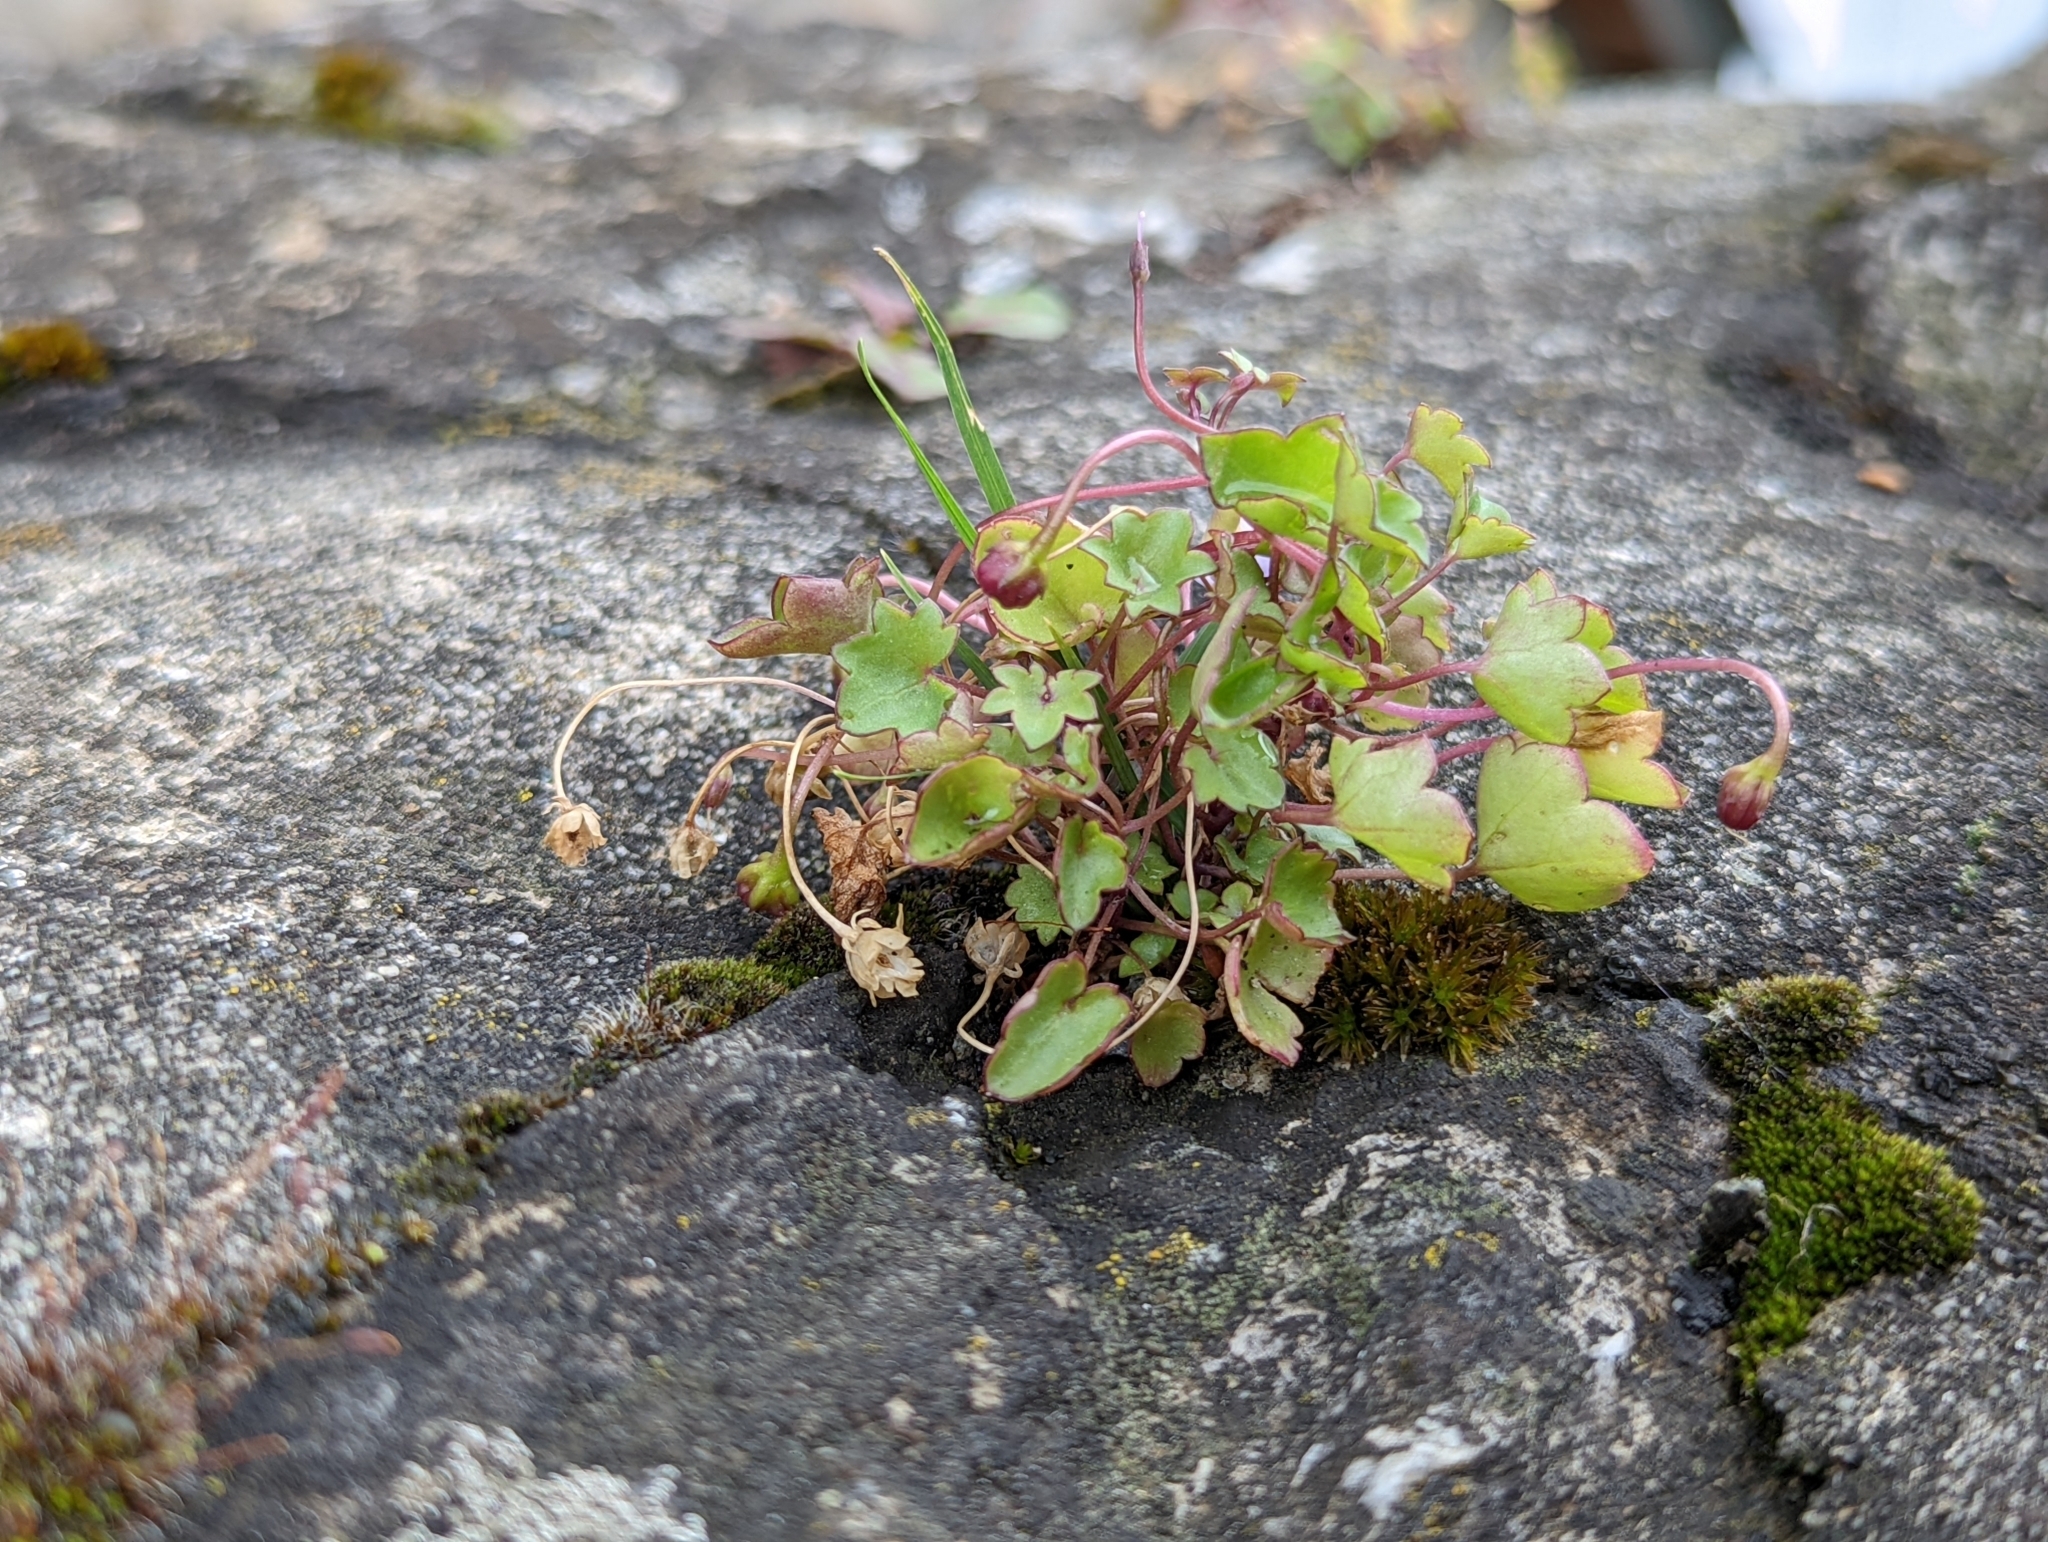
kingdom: Plantae
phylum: Tracheophyta
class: Magnoliopsida
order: Lamiales
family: Plantaginaceae
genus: Cymbalaria
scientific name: Cymbalaria muralis
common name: Ivy-leaved toadflax
